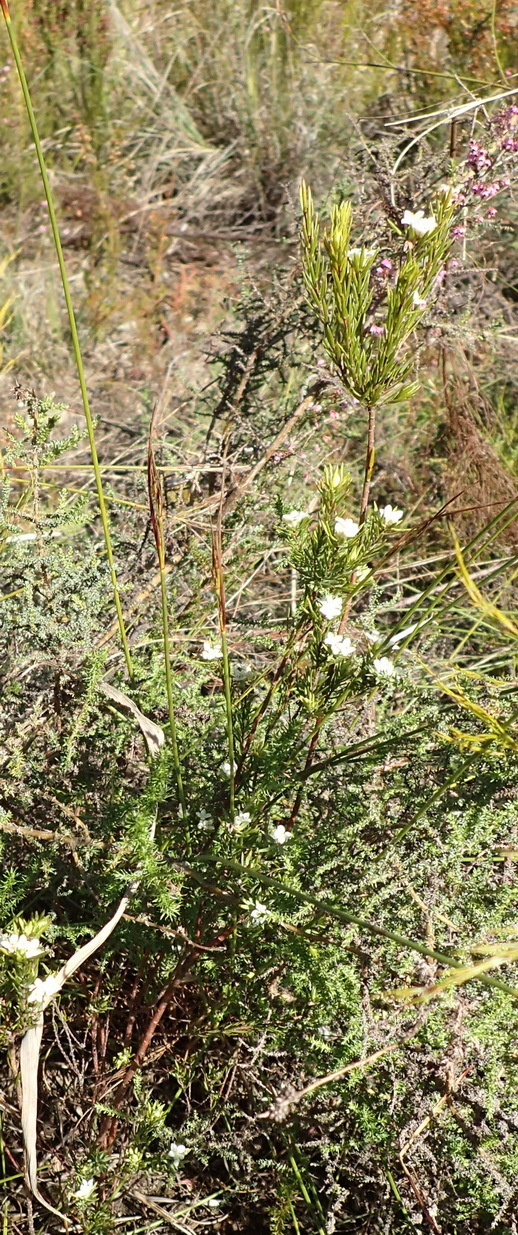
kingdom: Plantae
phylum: Tracheophyta
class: Magnoliopsida
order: Malvales
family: Thymelaeaceae
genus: Lachnaea
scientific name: Lachnaea diosmoides
